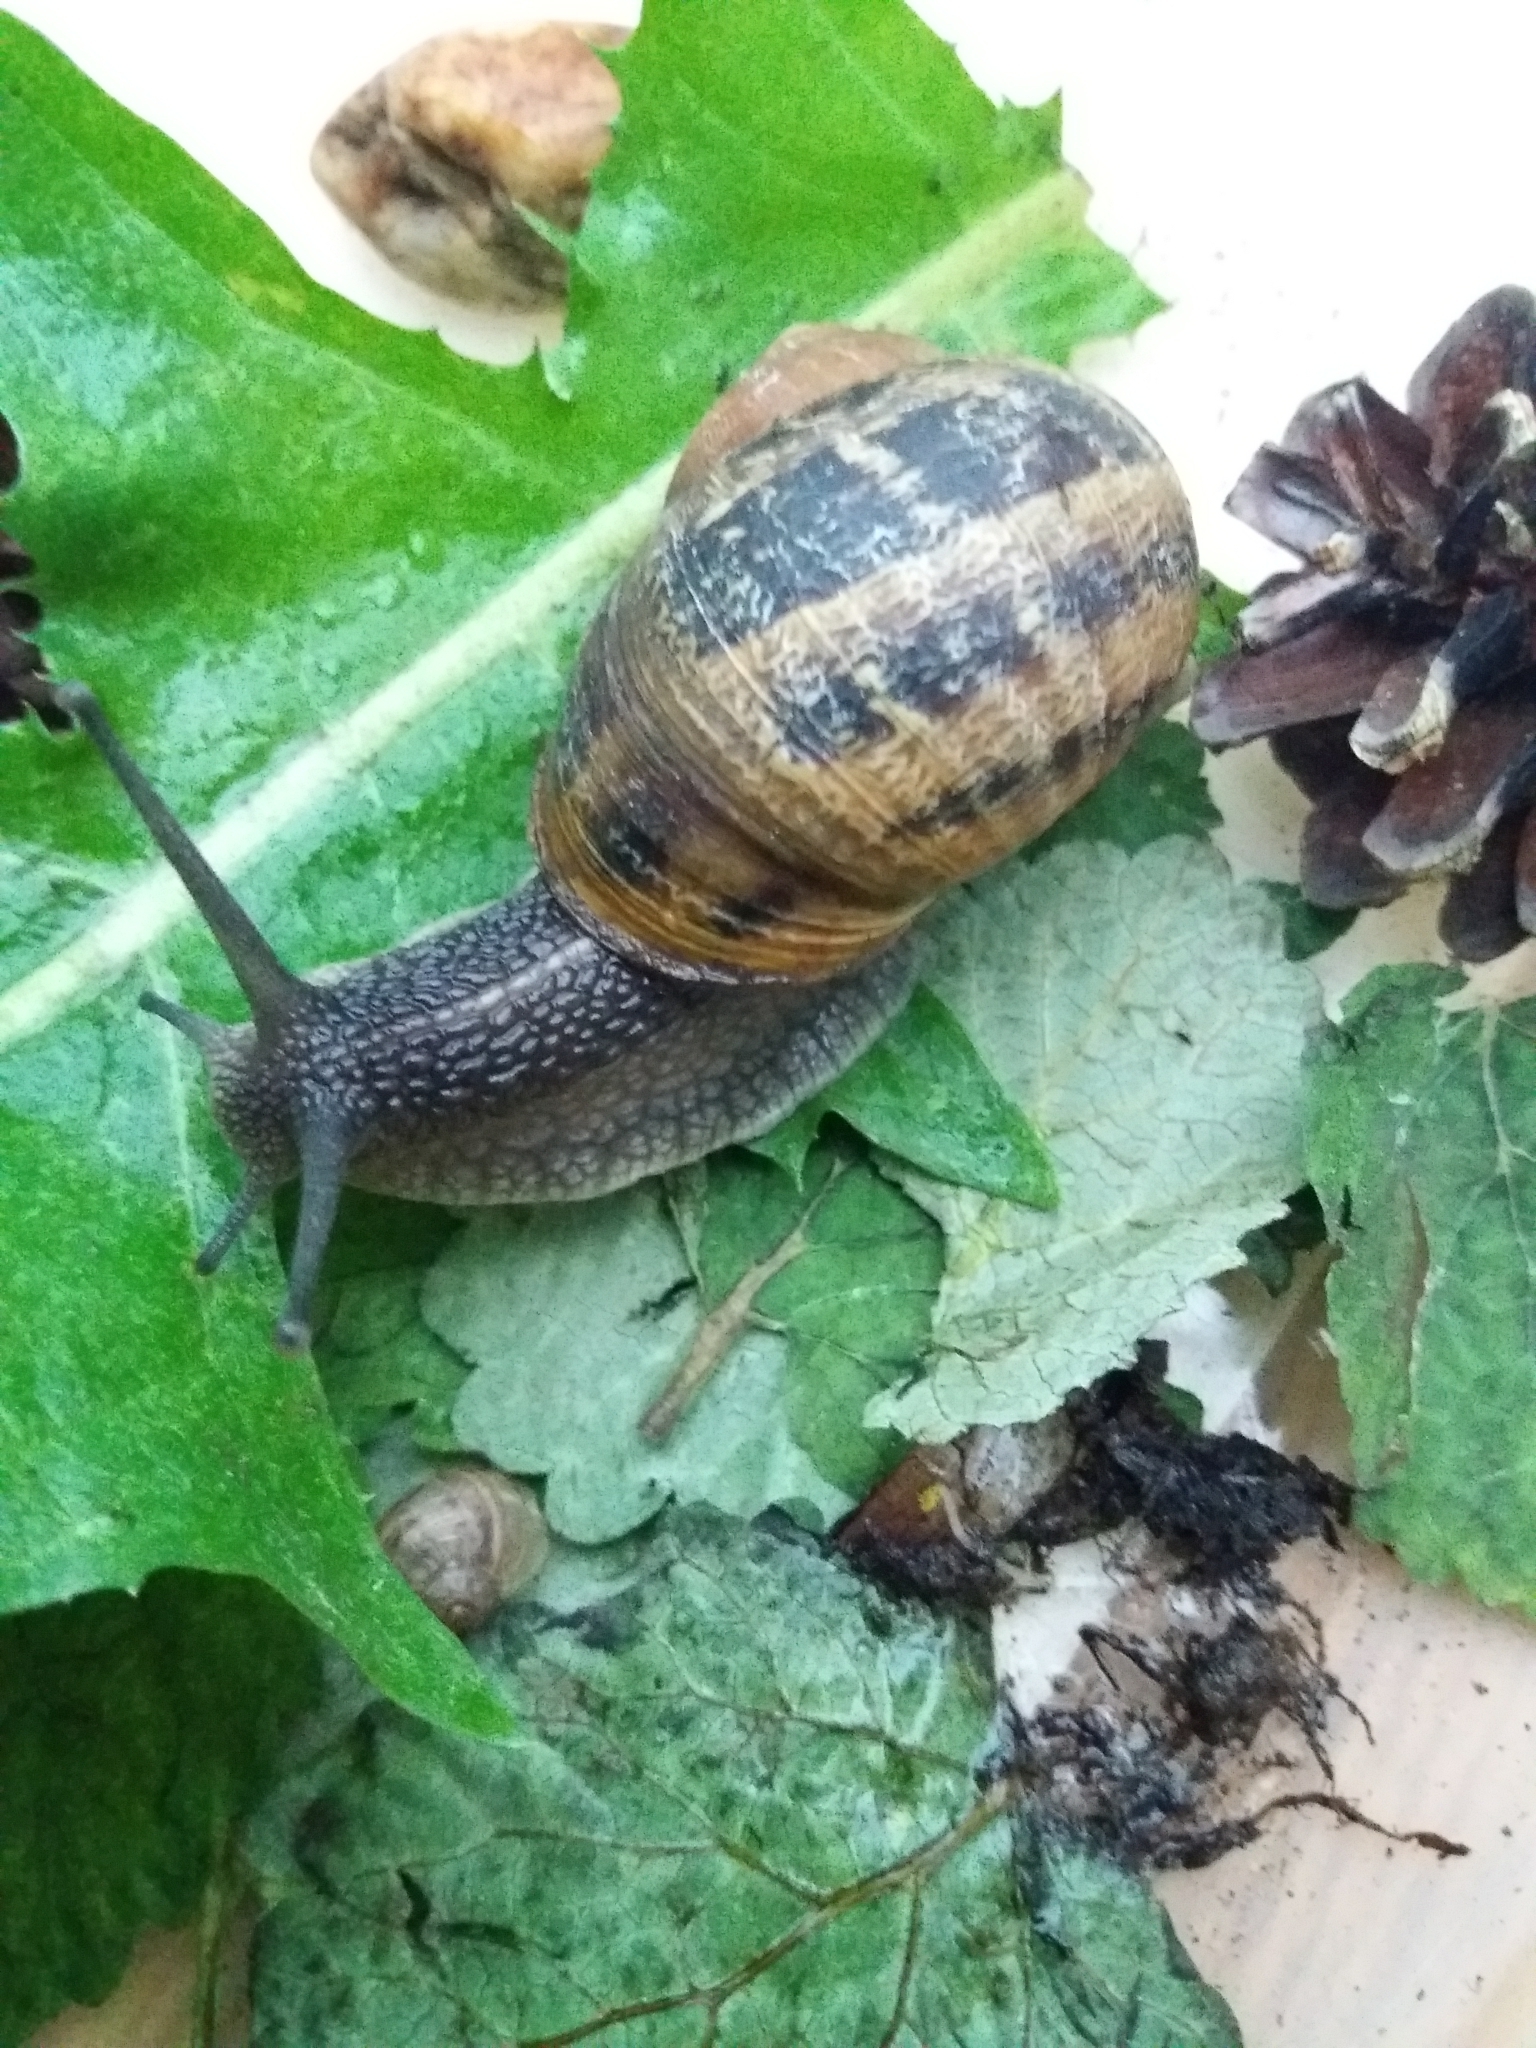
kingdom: Animalia
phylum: Mollusca
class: Gastropoda
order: Stylommatophora
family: Helicidae
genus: Cornu
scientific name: Cornu aspersum
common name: Brown garden snail
